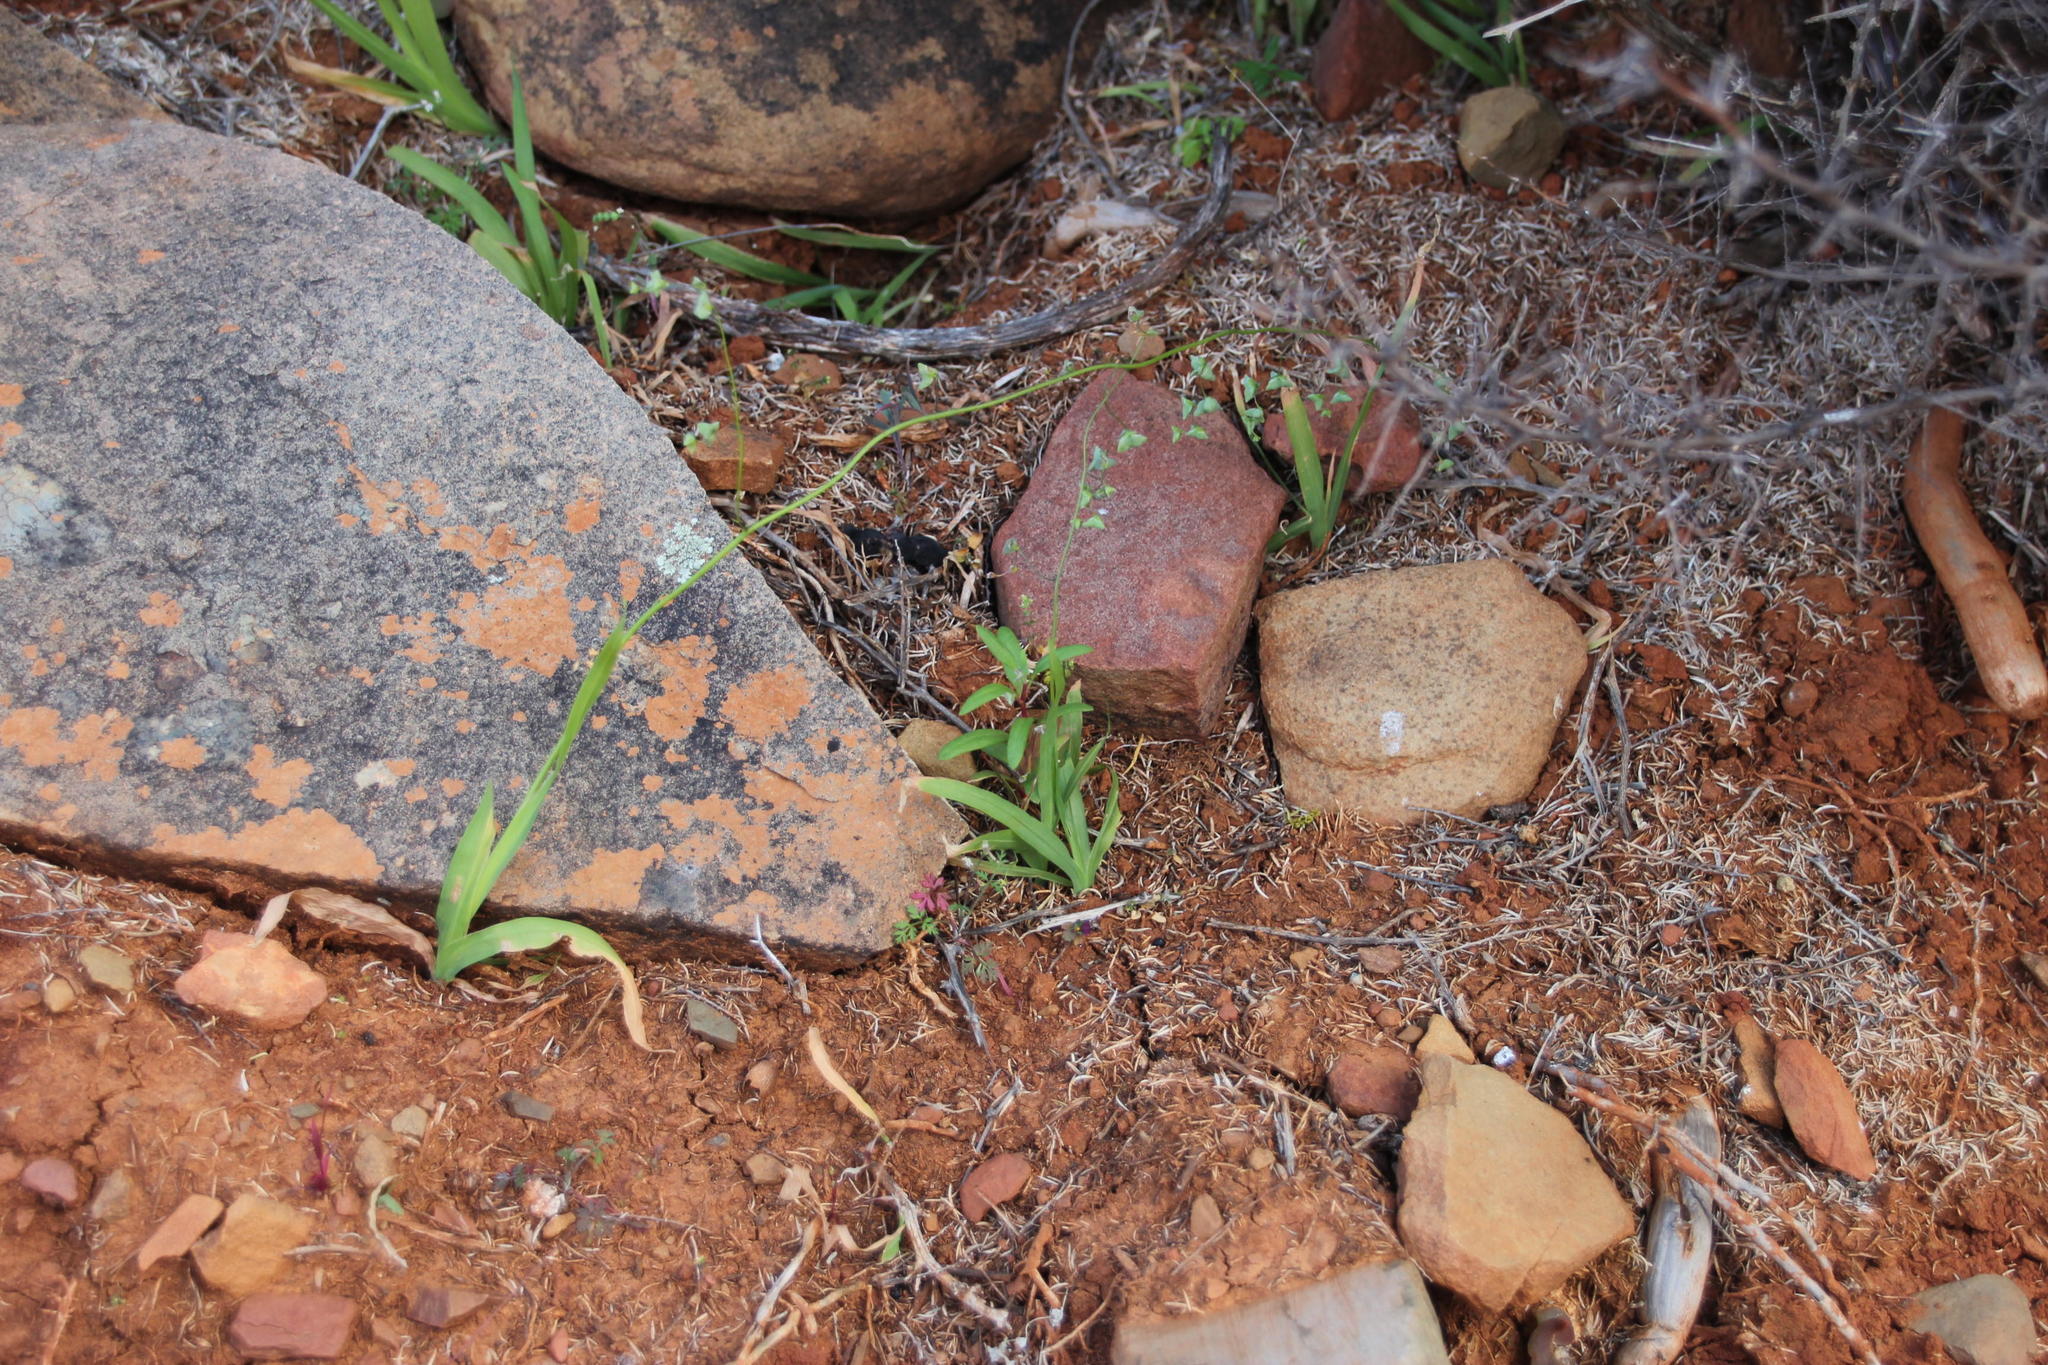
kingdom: Plantae
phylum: Tracheophyta
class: Liliopsida
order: Asparagales
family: Iridaceae
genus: Melasphaerula
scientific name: Melasphaerula graminea
